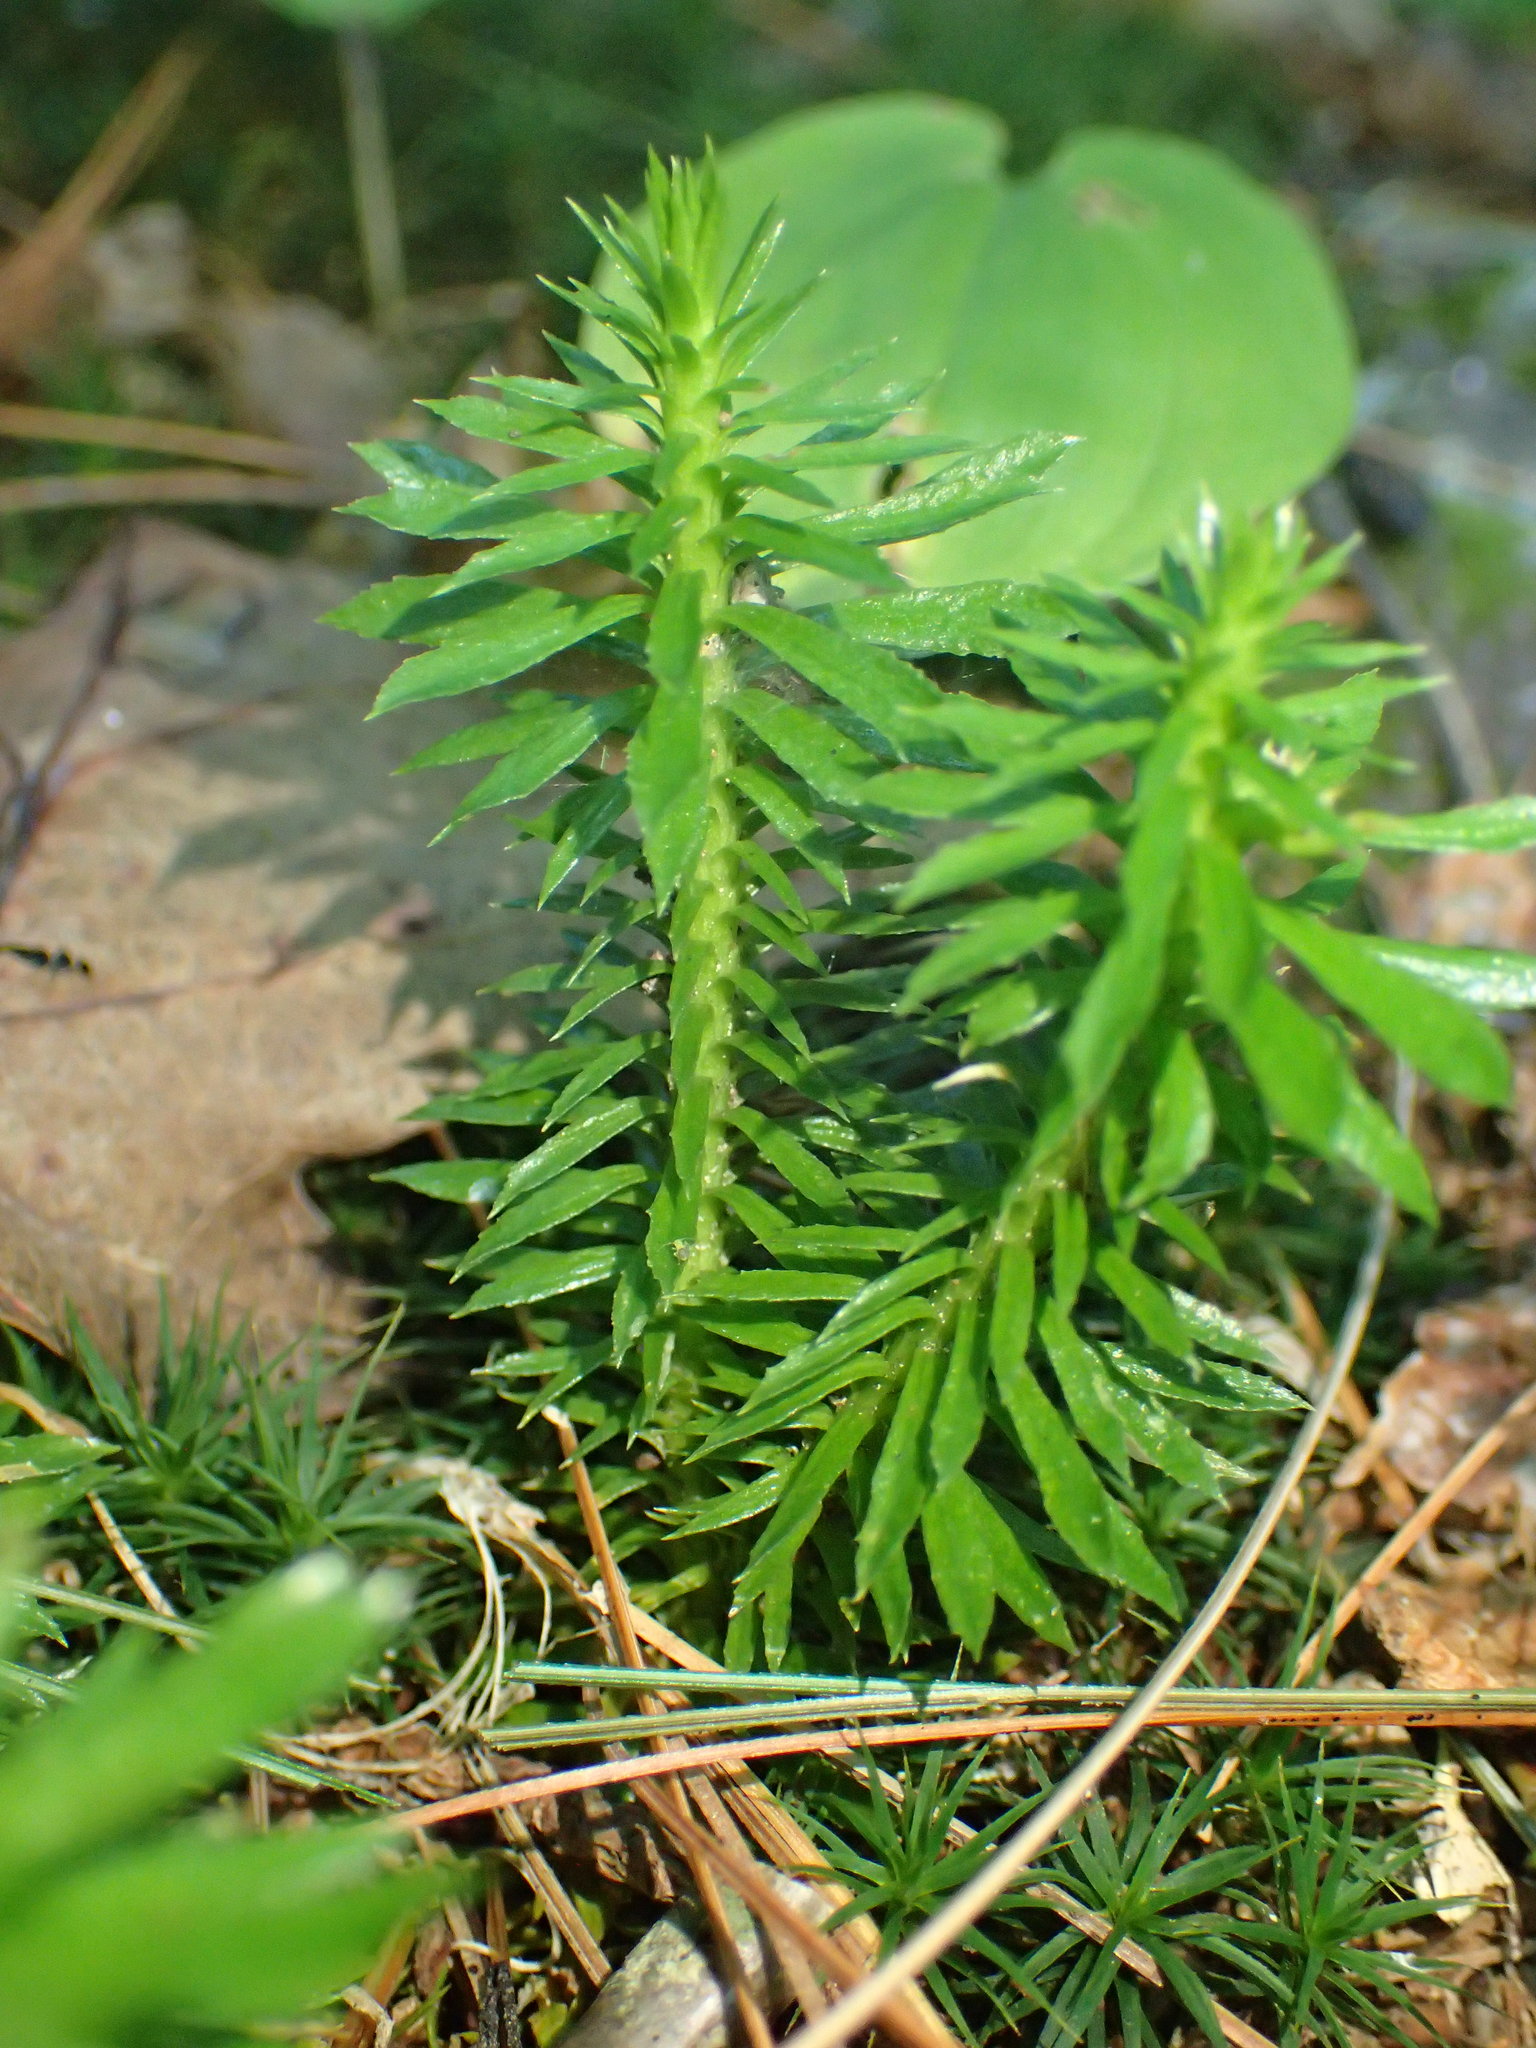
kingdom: Plantae
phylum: Tracheophyta
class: Lycopodiopsida
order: Lycopodiales
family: Lycopodiaceae
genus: Huperzia
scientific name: Huperzia lucidula
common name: Shining clubmoss
